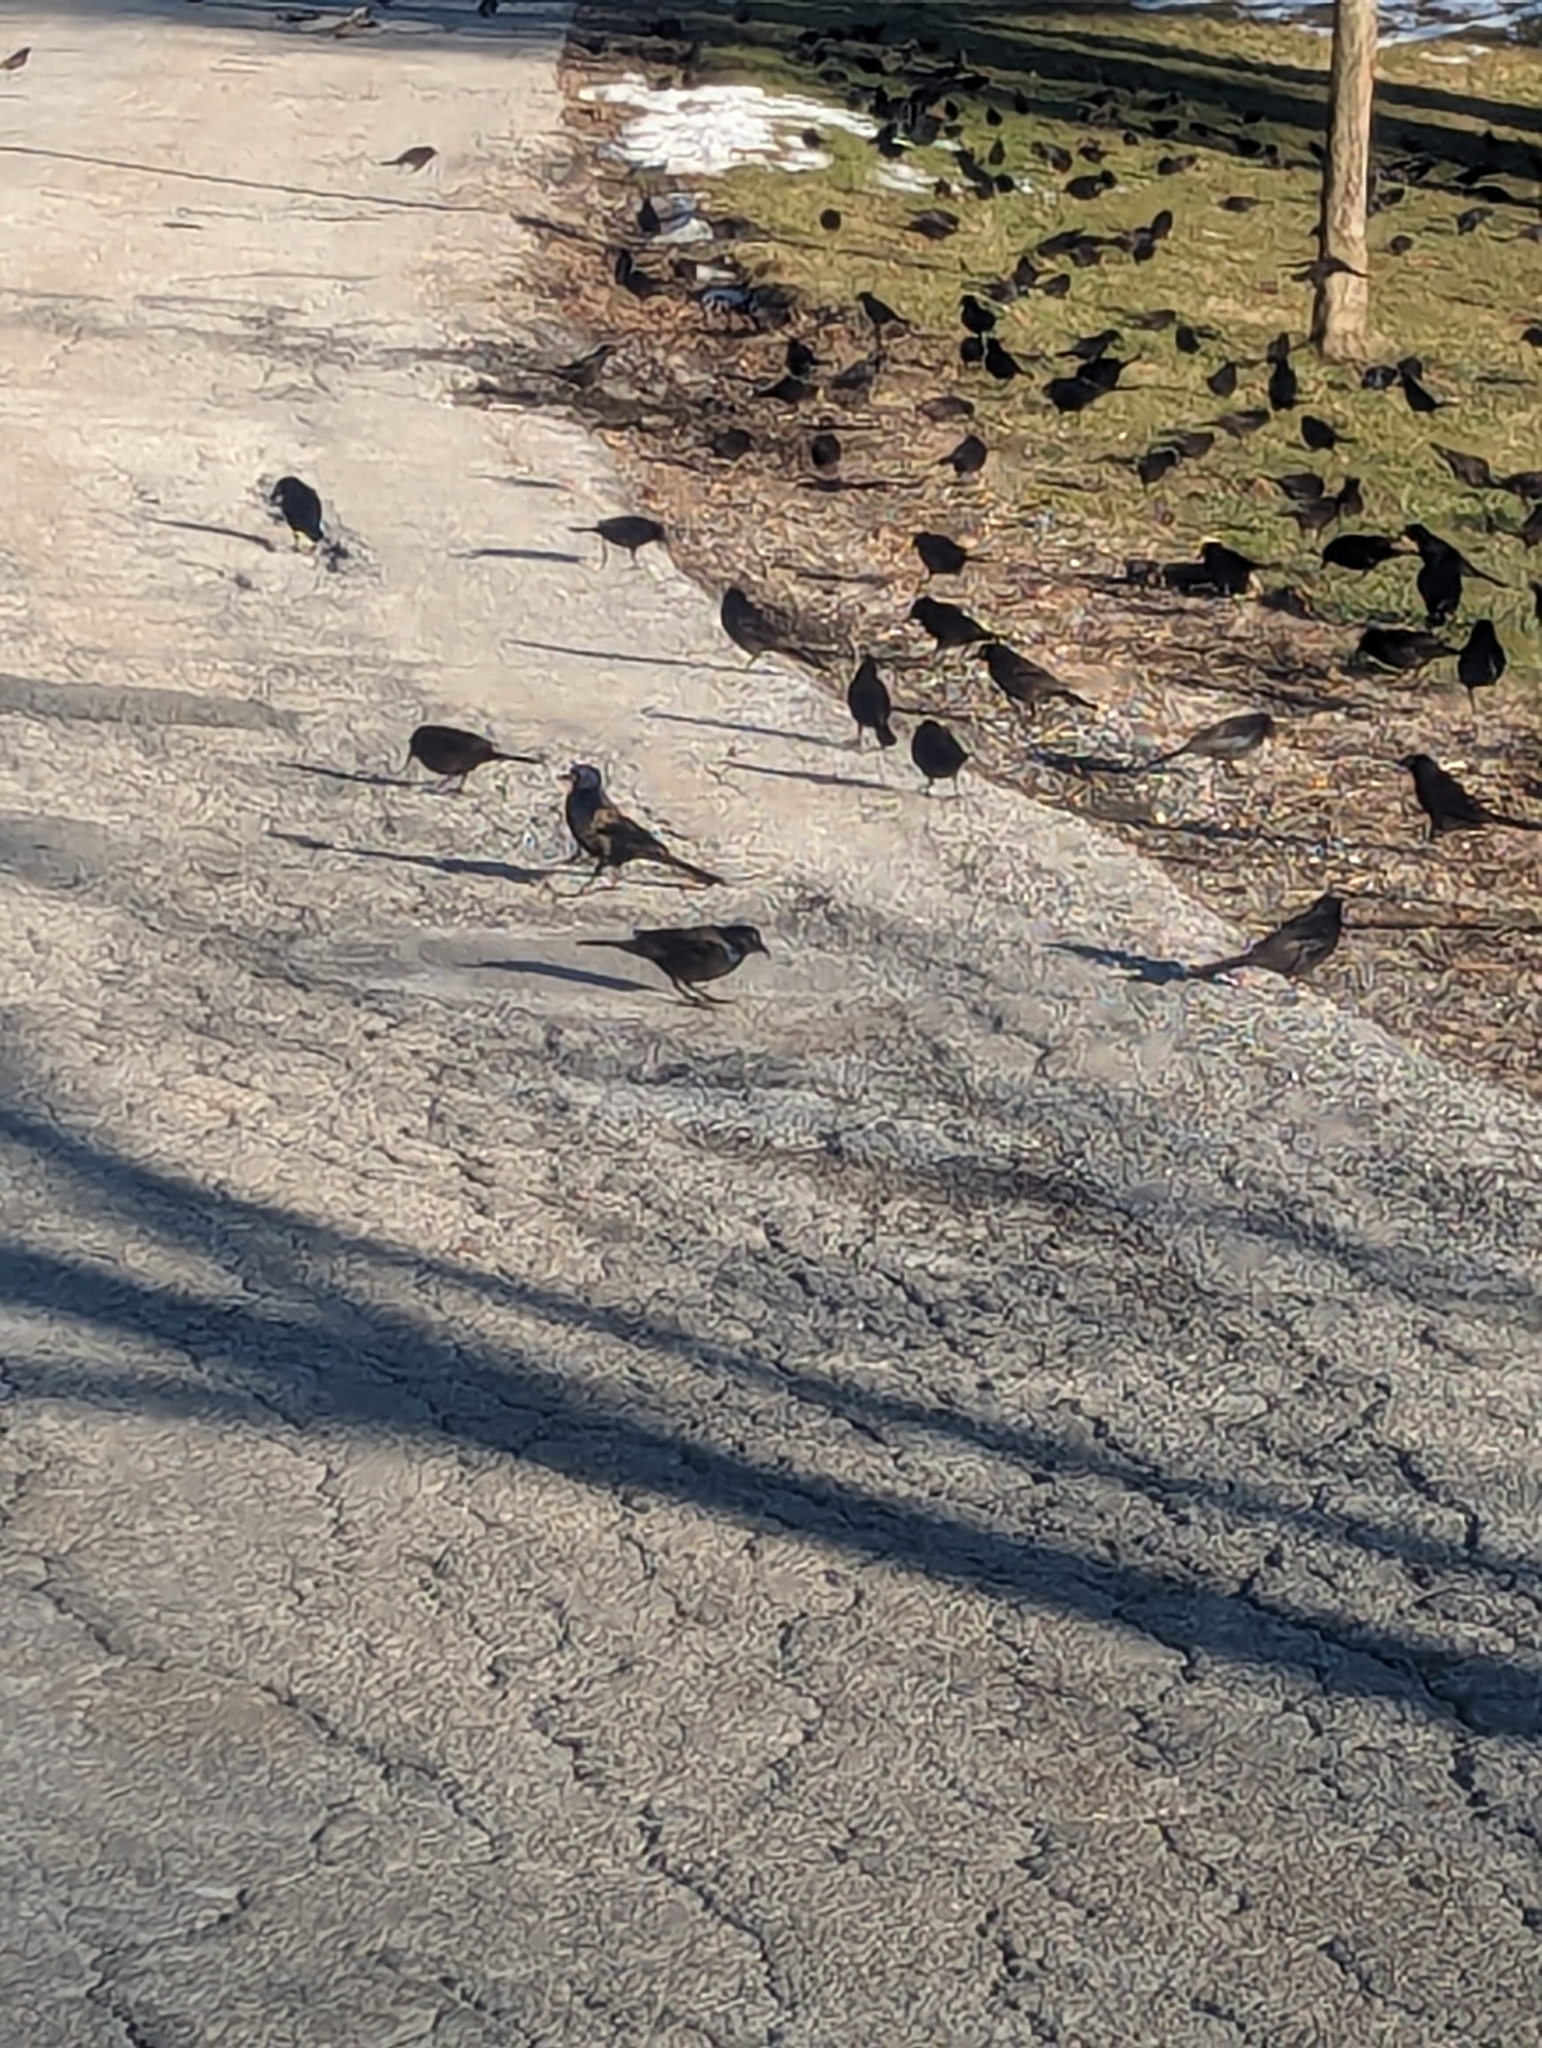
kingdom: Animalia
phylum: Chordata
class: Aves
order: Passeriformes
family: Icteridae
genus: Quiscalus
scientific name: Quiscalus quiscula
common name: Common grackle
